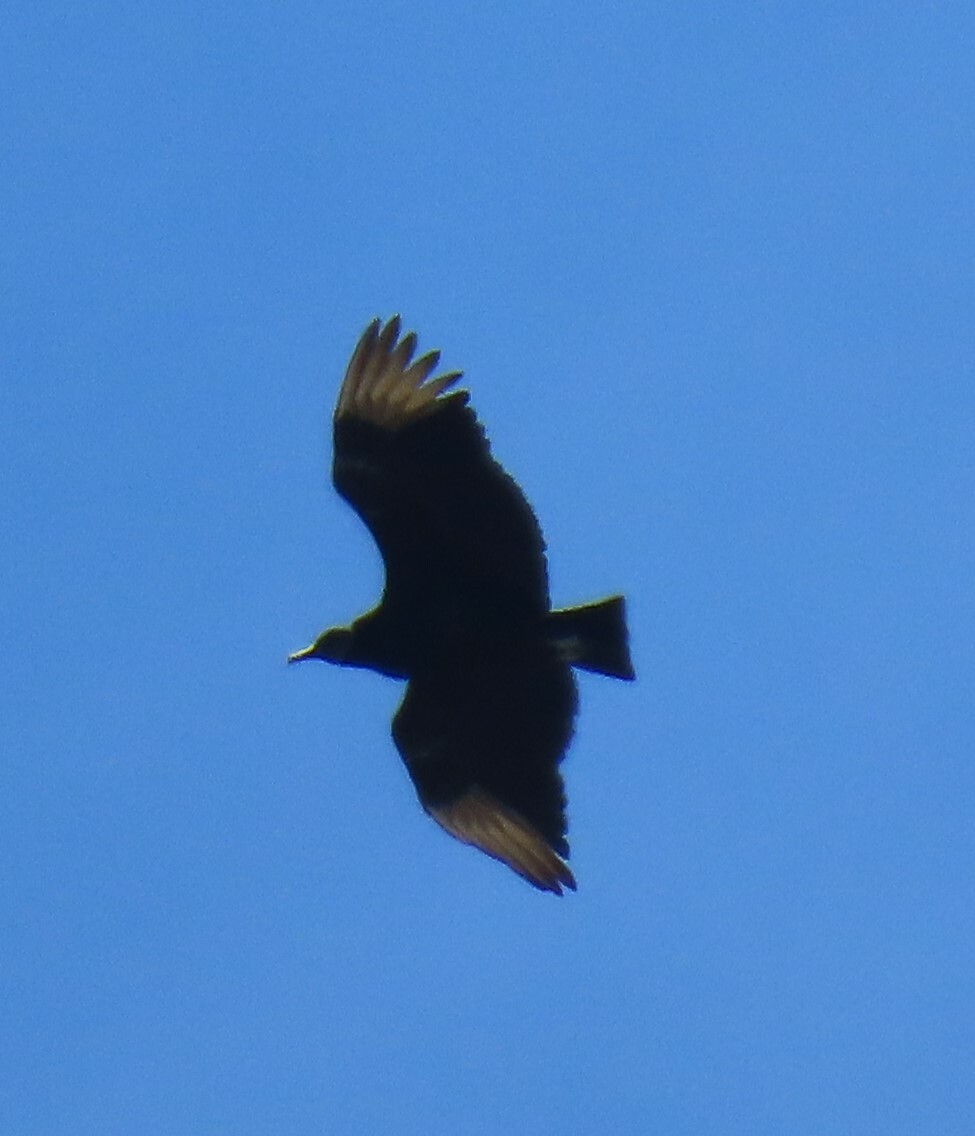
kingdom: Animalia
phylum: Chordata
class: Aves
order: Accipitriformes
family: Cathartidae
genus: Coragyps
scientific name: Coragyps atratus
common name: Black vulture
